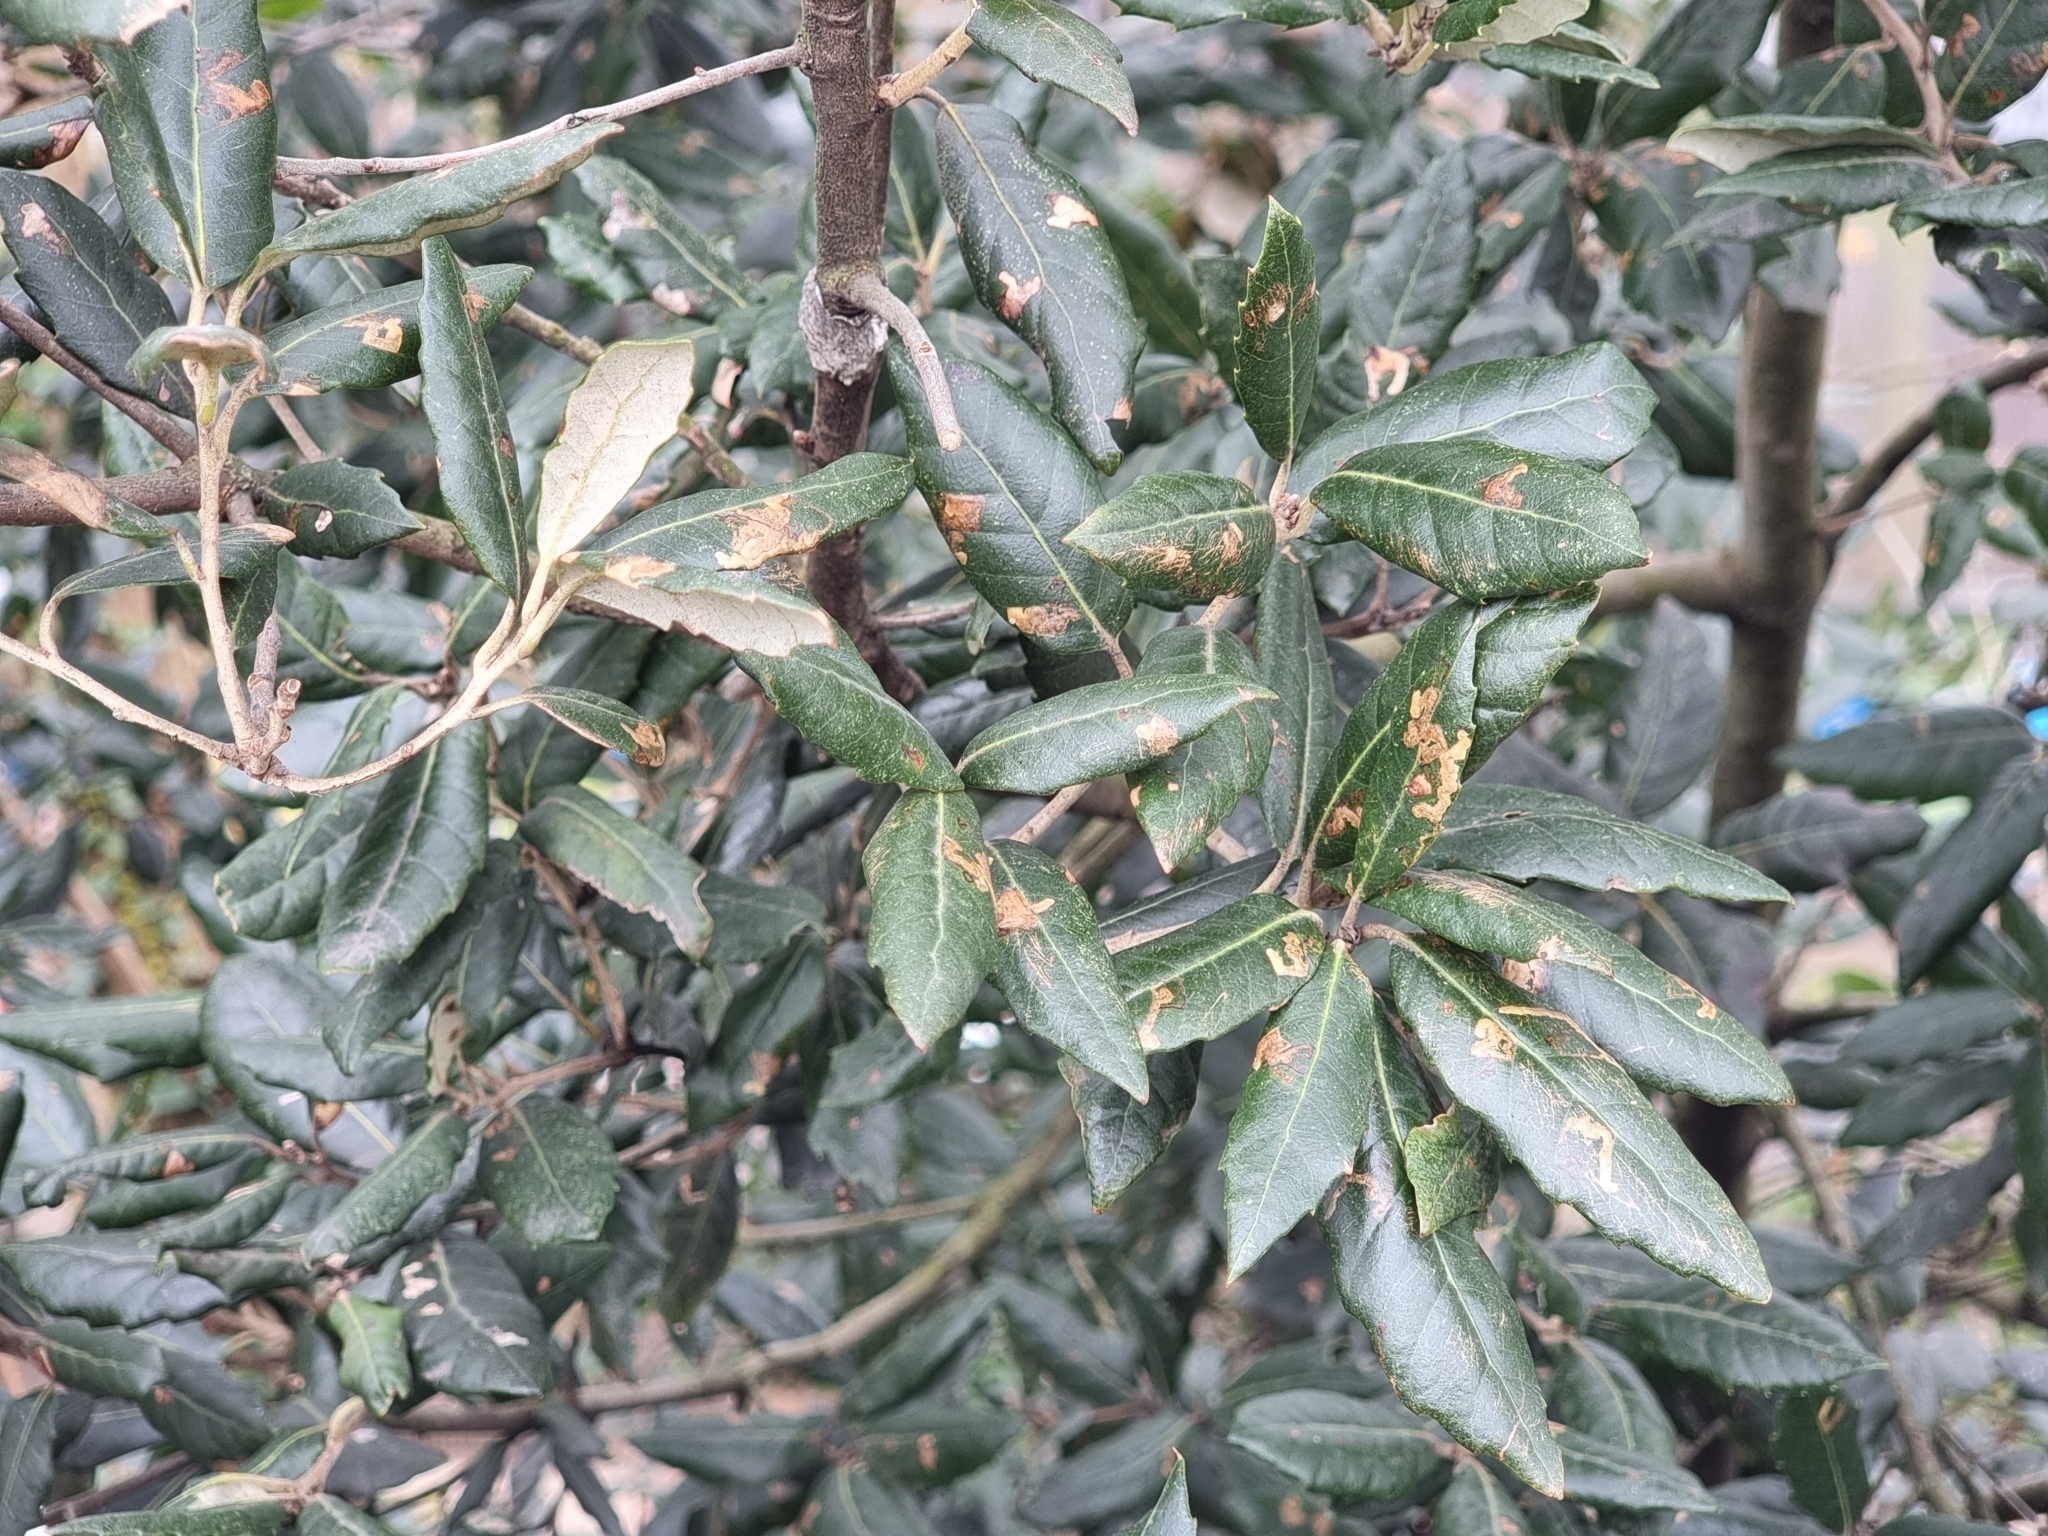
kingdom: Plantae
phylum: Tracheophyta
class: Magnoliopsida
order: Fagales
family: Fagaceae
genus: Quercus
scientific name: Quercus ilex
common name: Evergreen oak
